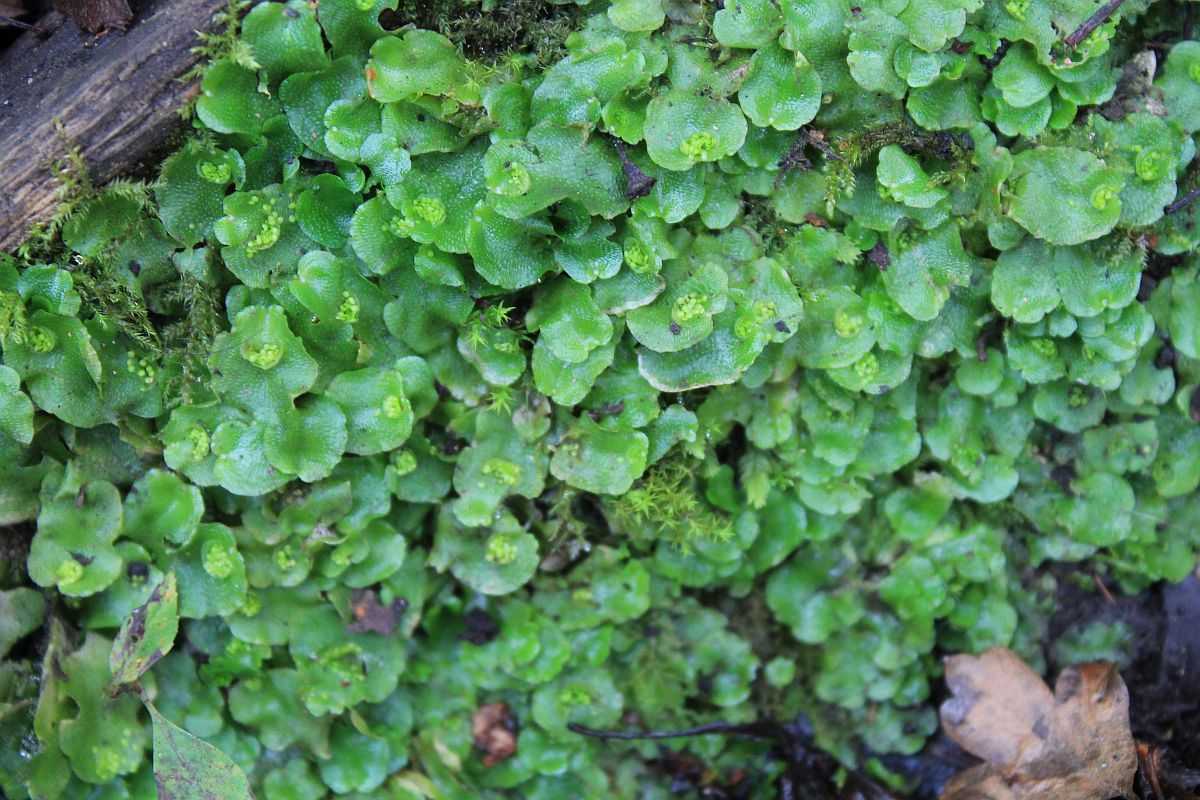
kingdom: Plantae
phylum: Marchantiophyta
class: Marchantiopsida
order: Lunulariales
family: Lunulariaceae
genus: Lunularia
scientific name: Lunularia cruciata
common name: Crescent-cup liverwort
